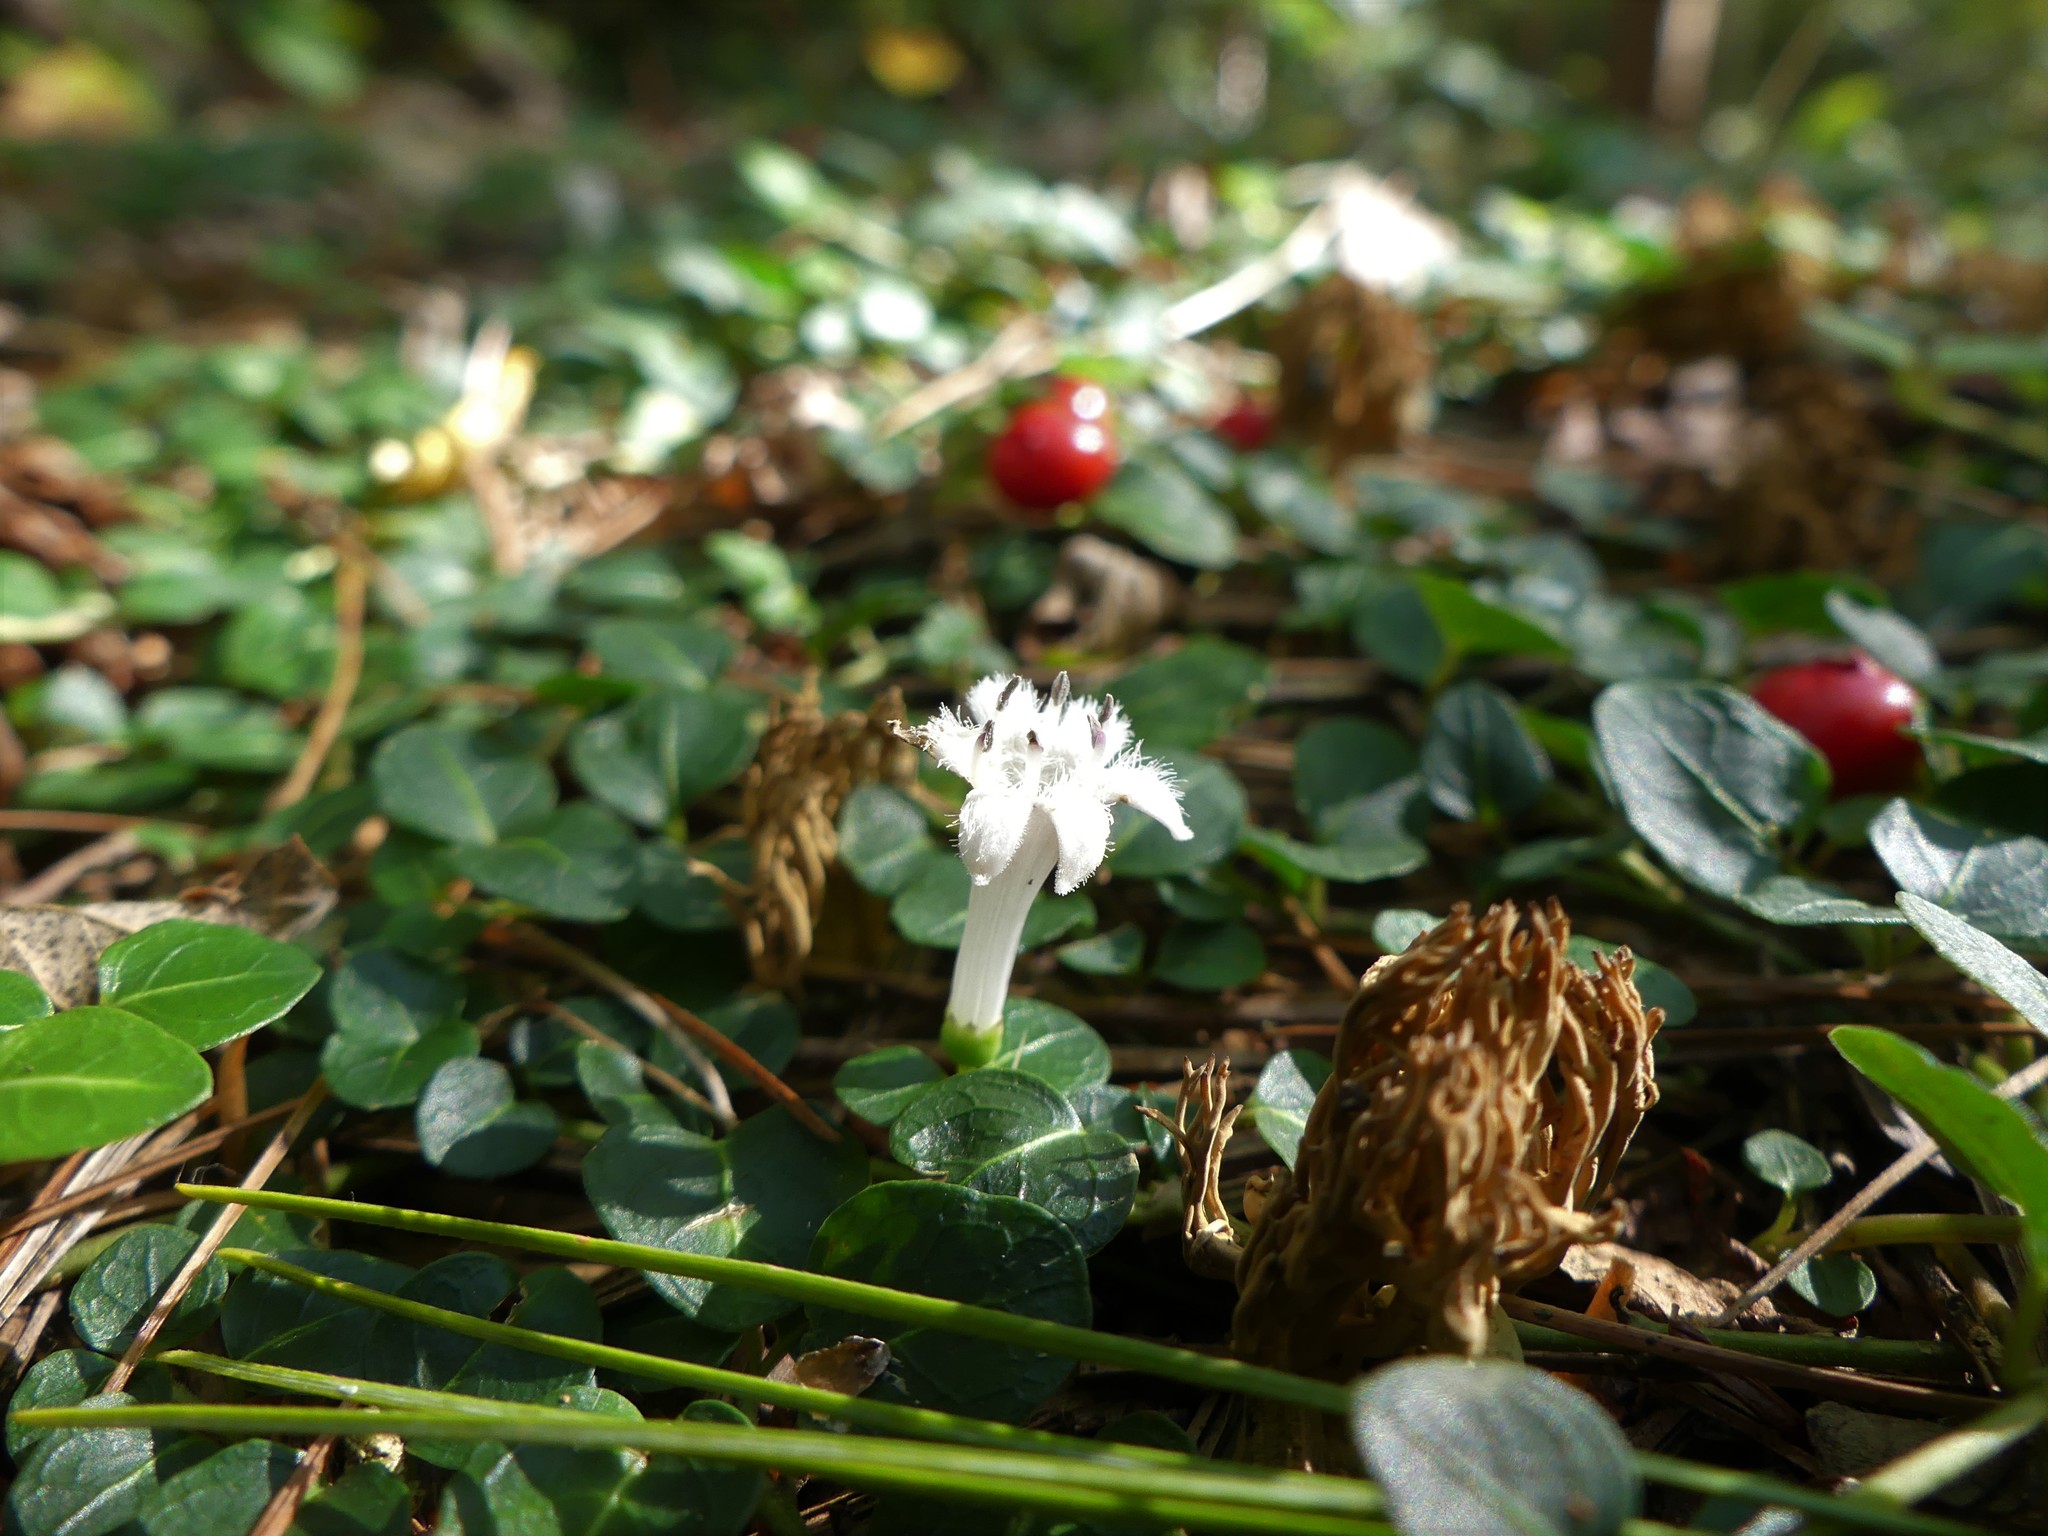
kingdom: Plantae
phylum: Tracheophyta
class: Magnoliopsida
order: Gentianales
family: Rubiaceae
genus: Mitchella
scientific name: Mitchella repens
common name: Partridge-berry
